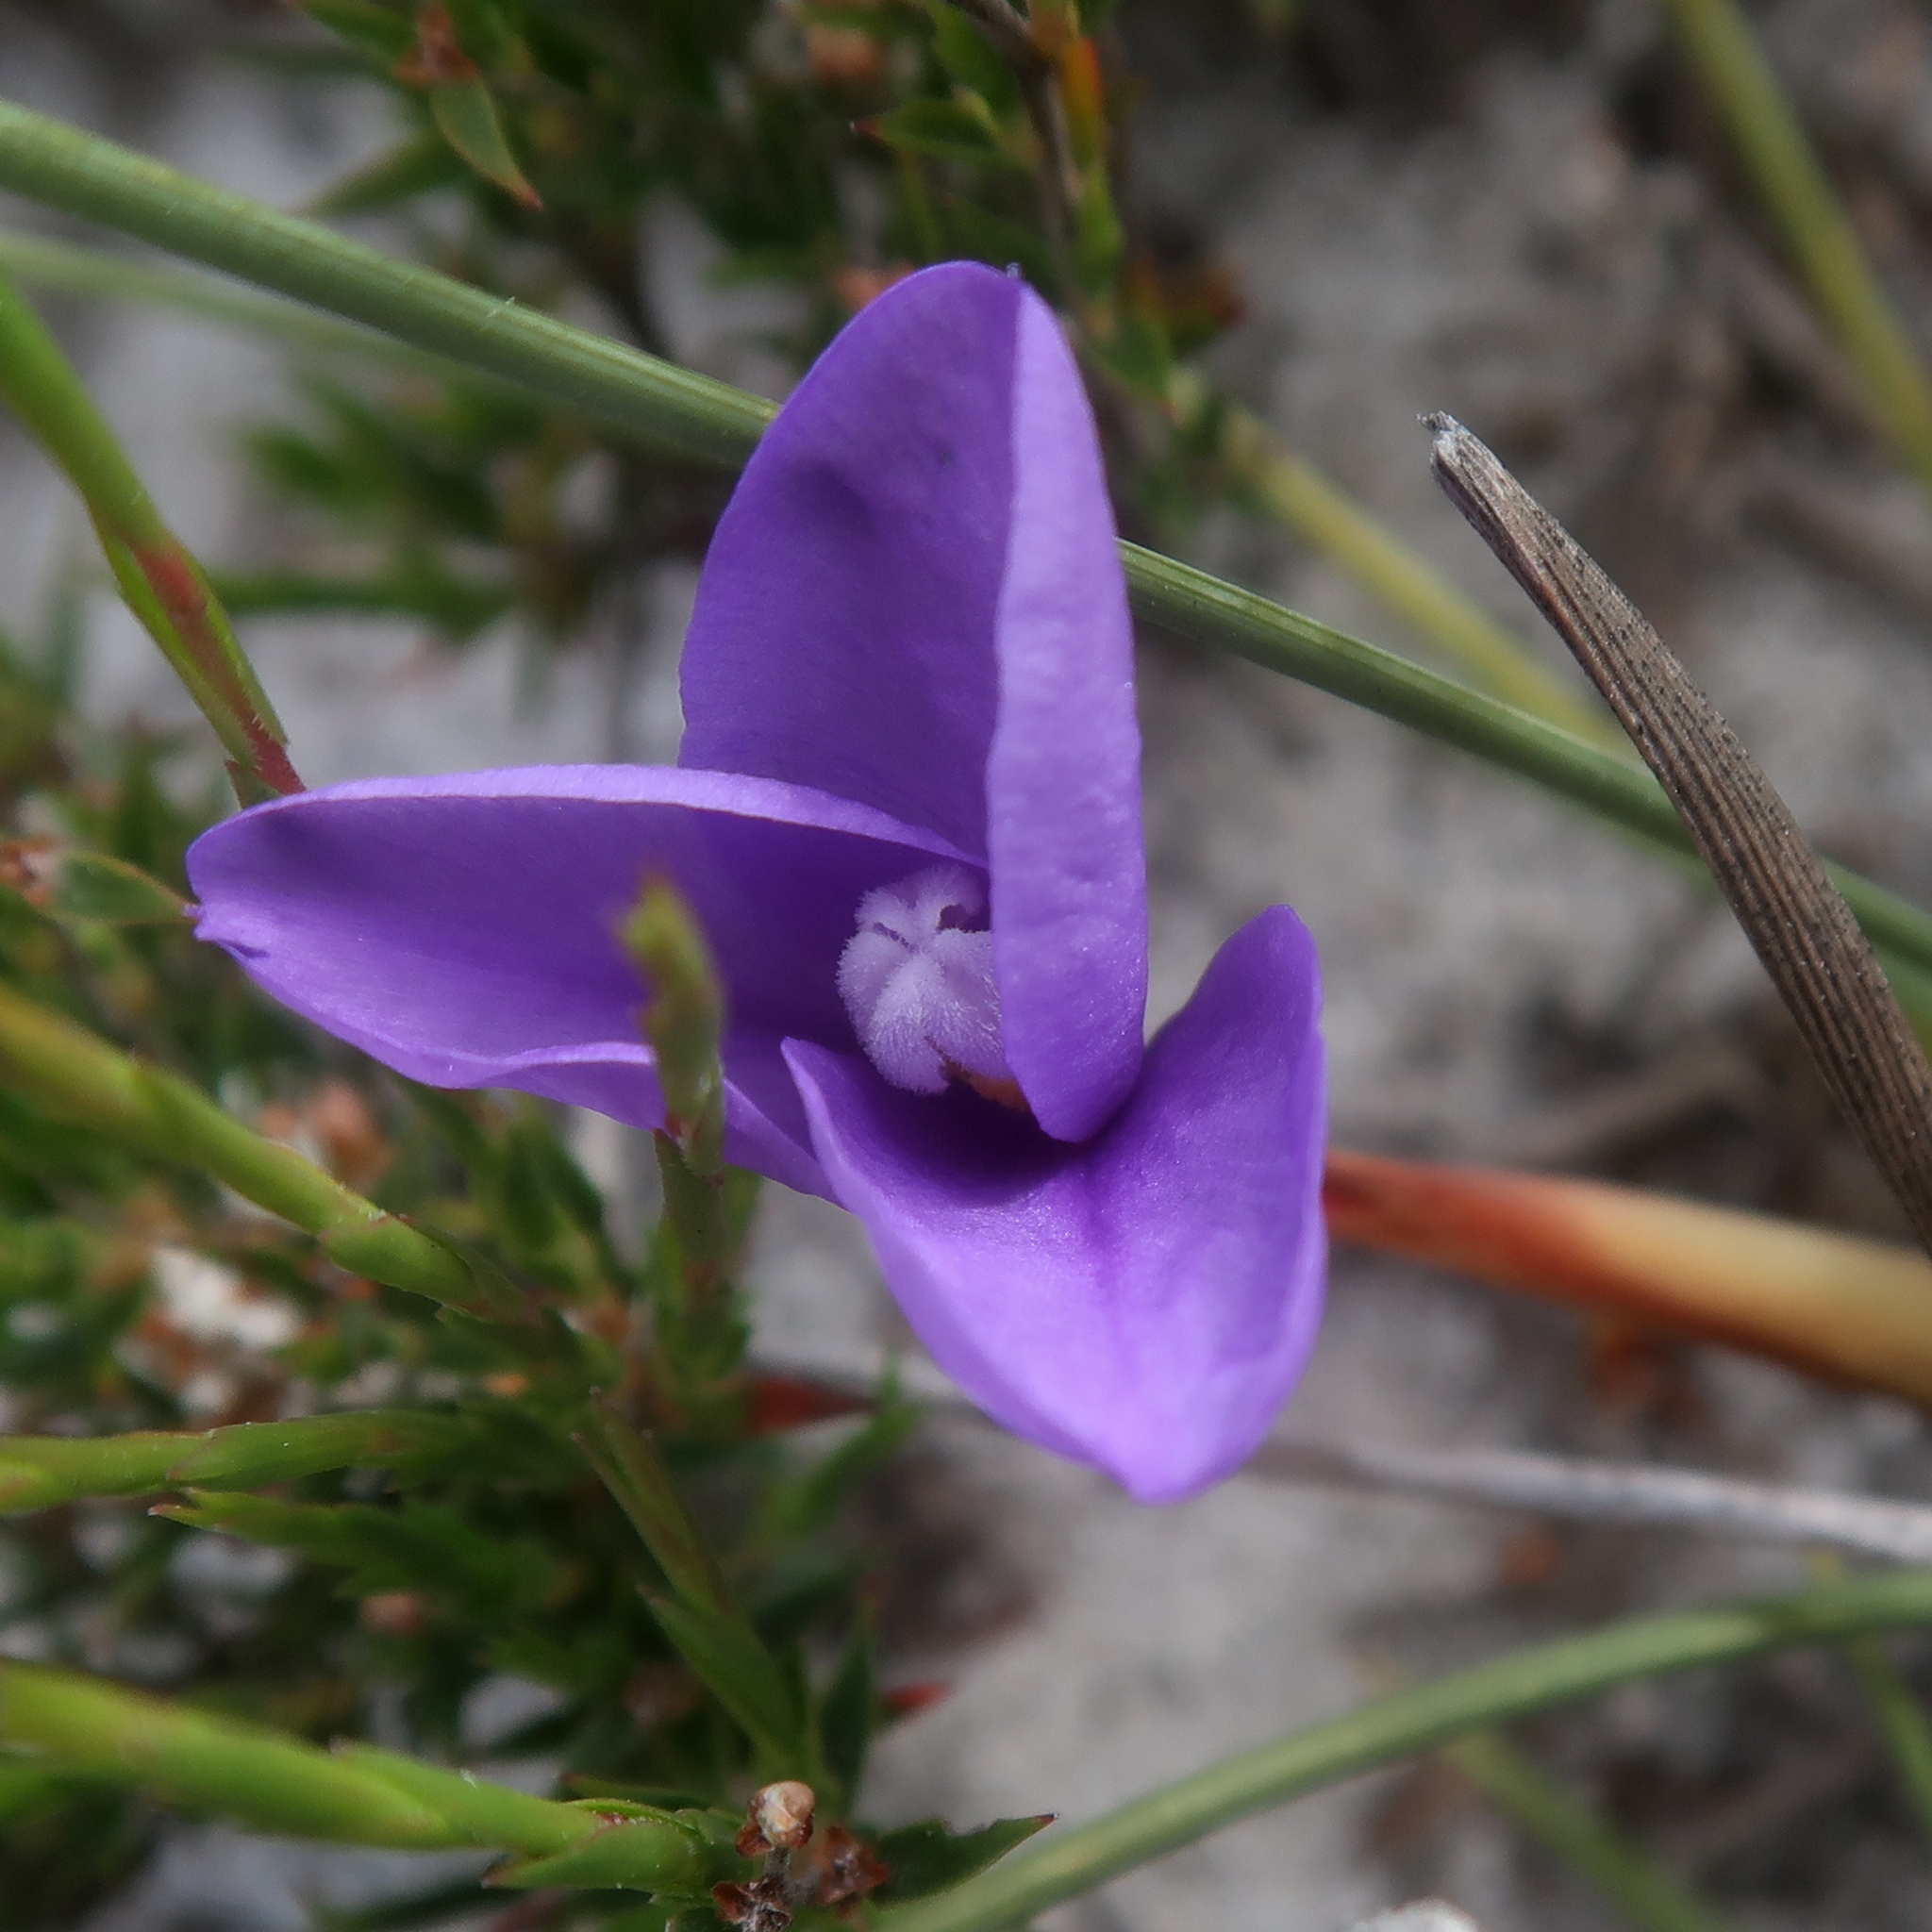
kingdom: Plantae
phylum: Tracheophyta
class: Liliopsida
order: Asparagales
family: Iridaceae
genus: Patersonia
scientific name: Patersonia fragilis
